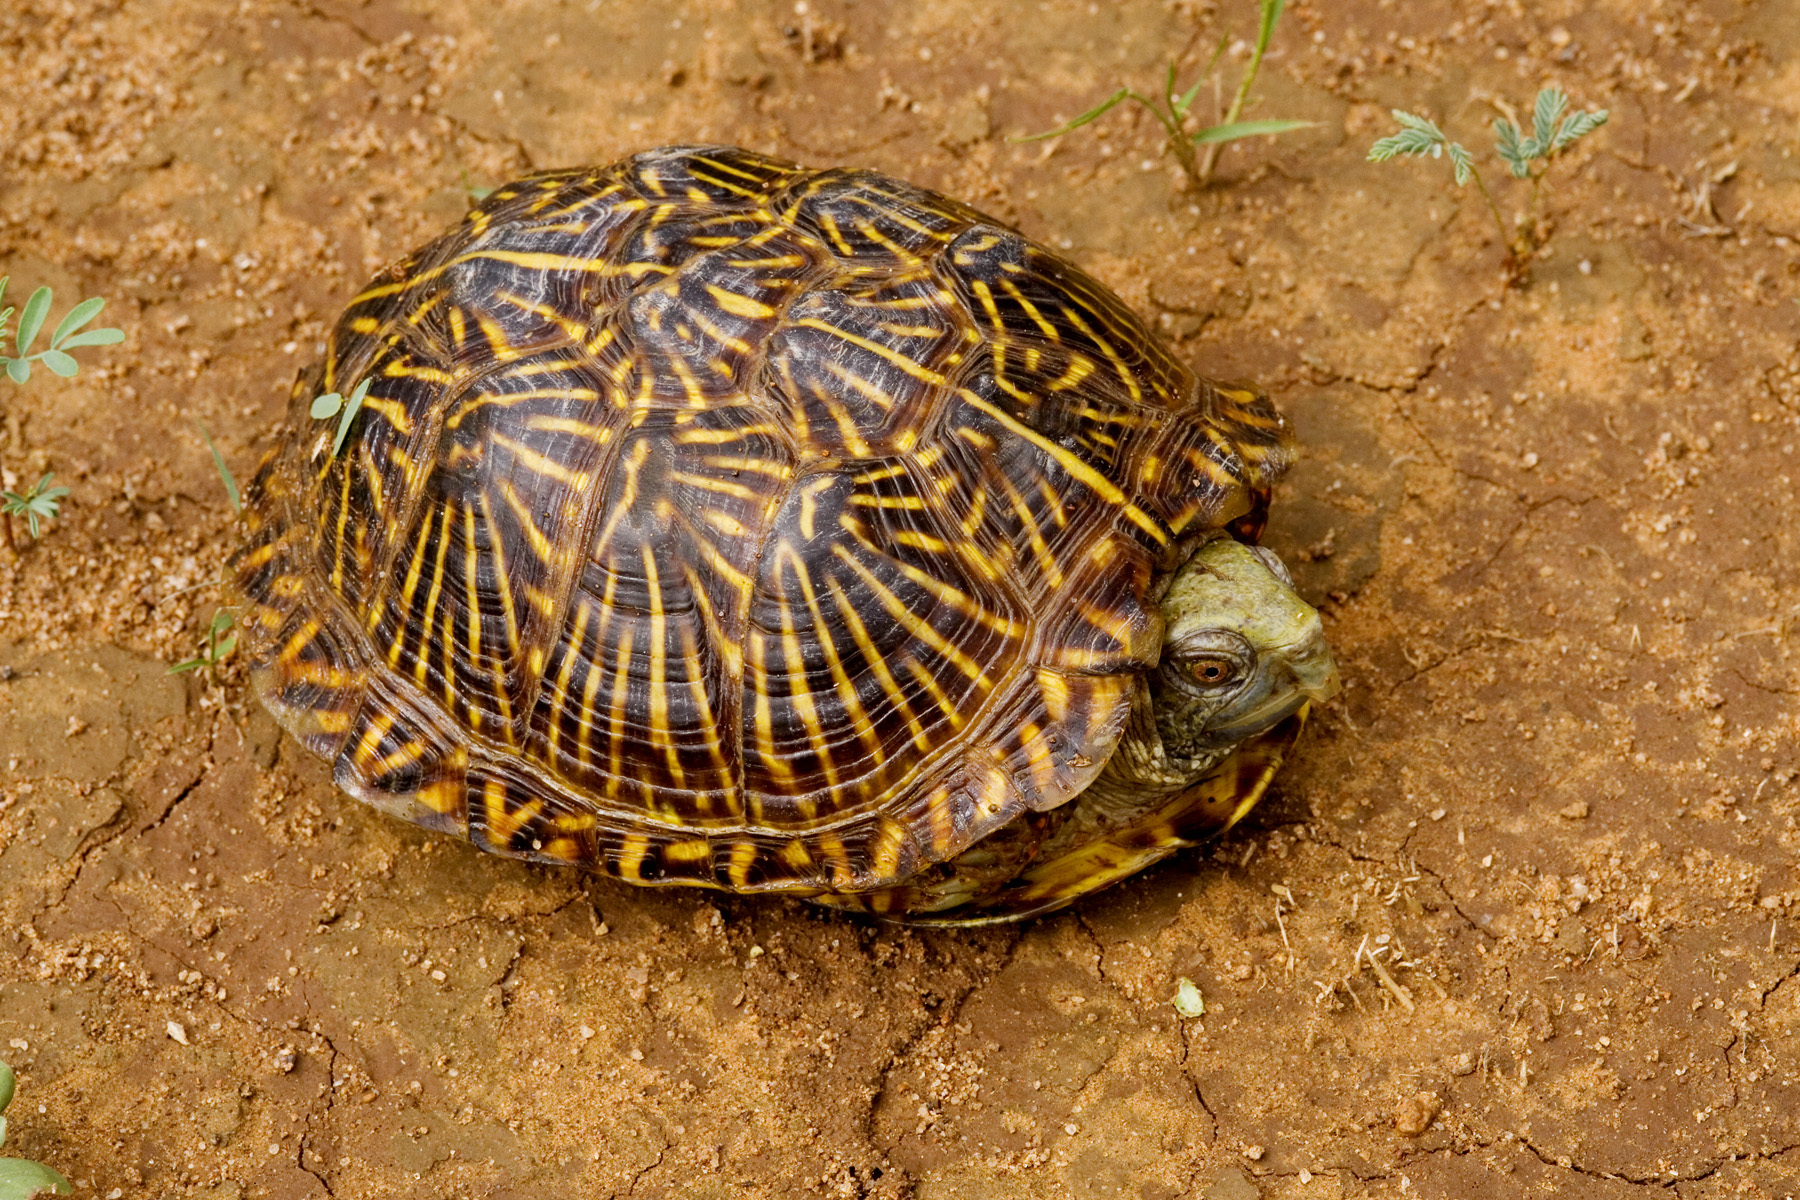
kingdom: Animalia
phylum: Chordata
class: Testudines
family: Emydidae
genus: Terrapene
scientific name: Terrapene ornata
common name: Western box turtle
